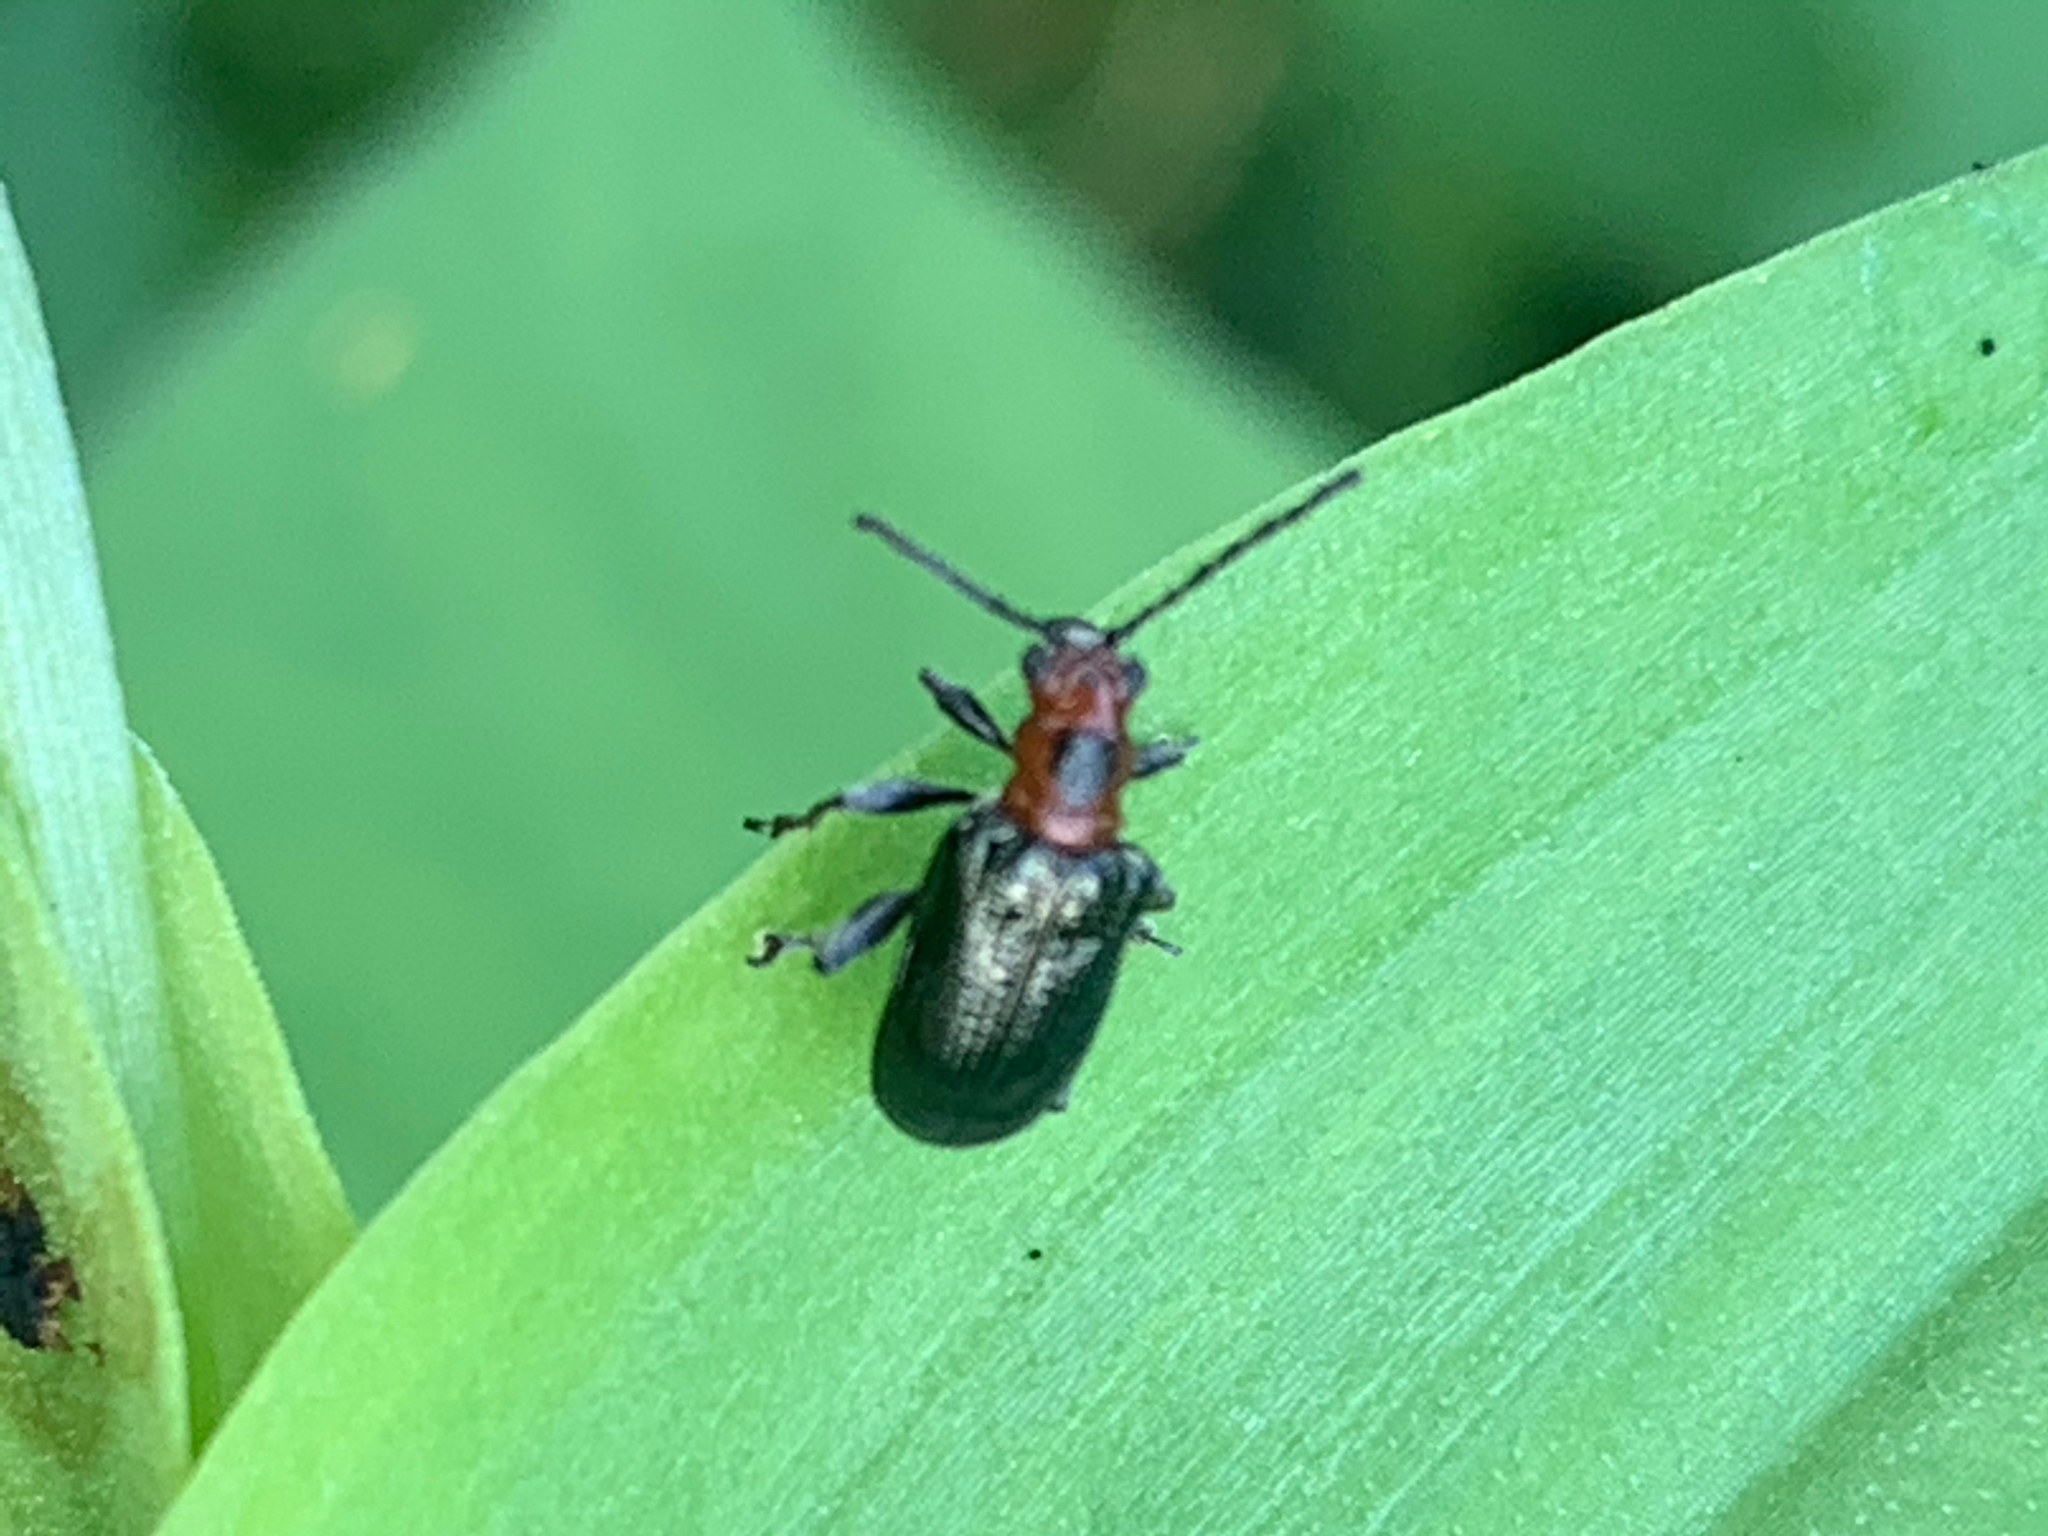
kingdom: Animalia
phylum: Arthropoda
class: Insecta
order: Coleoptera
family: Chrysomelidae
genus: Oulema
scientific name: Oulema sayi
